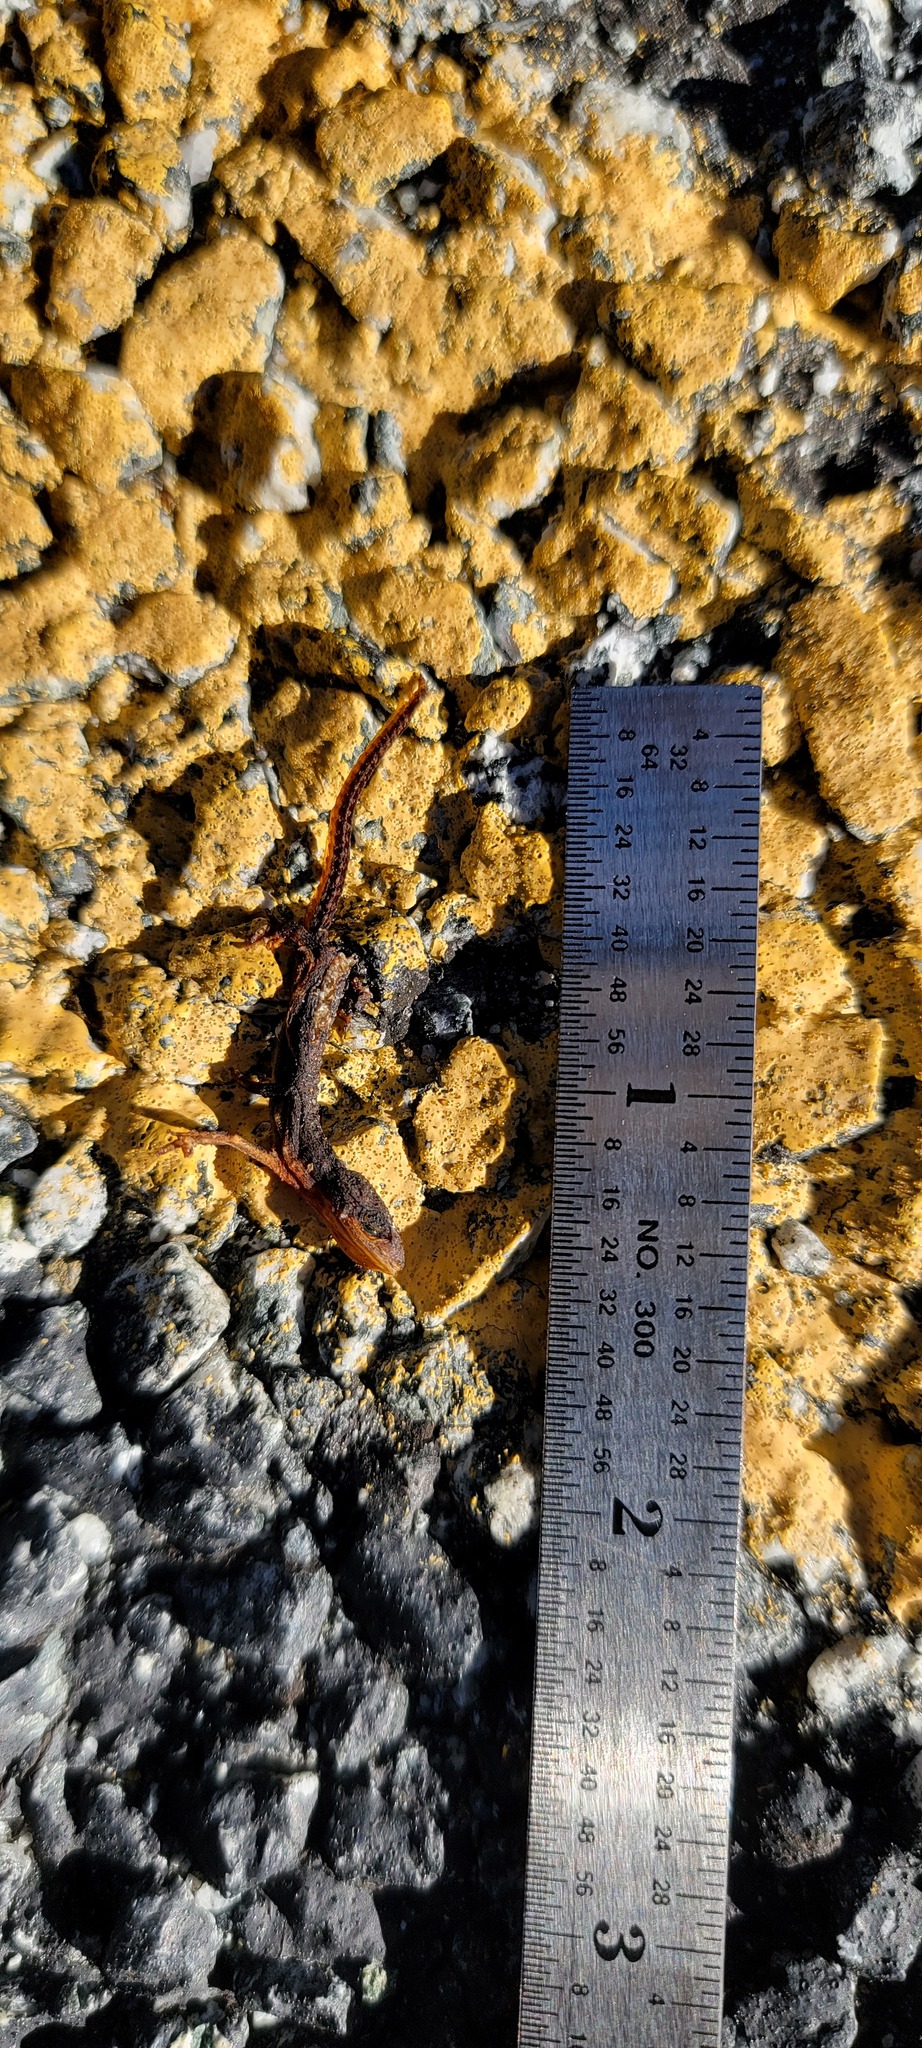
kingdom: Animalia
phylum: Chordata
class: Amphibia
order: Caudata
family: Salamandridae
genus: Taricha
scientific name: Taricha torosa
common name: California newt
